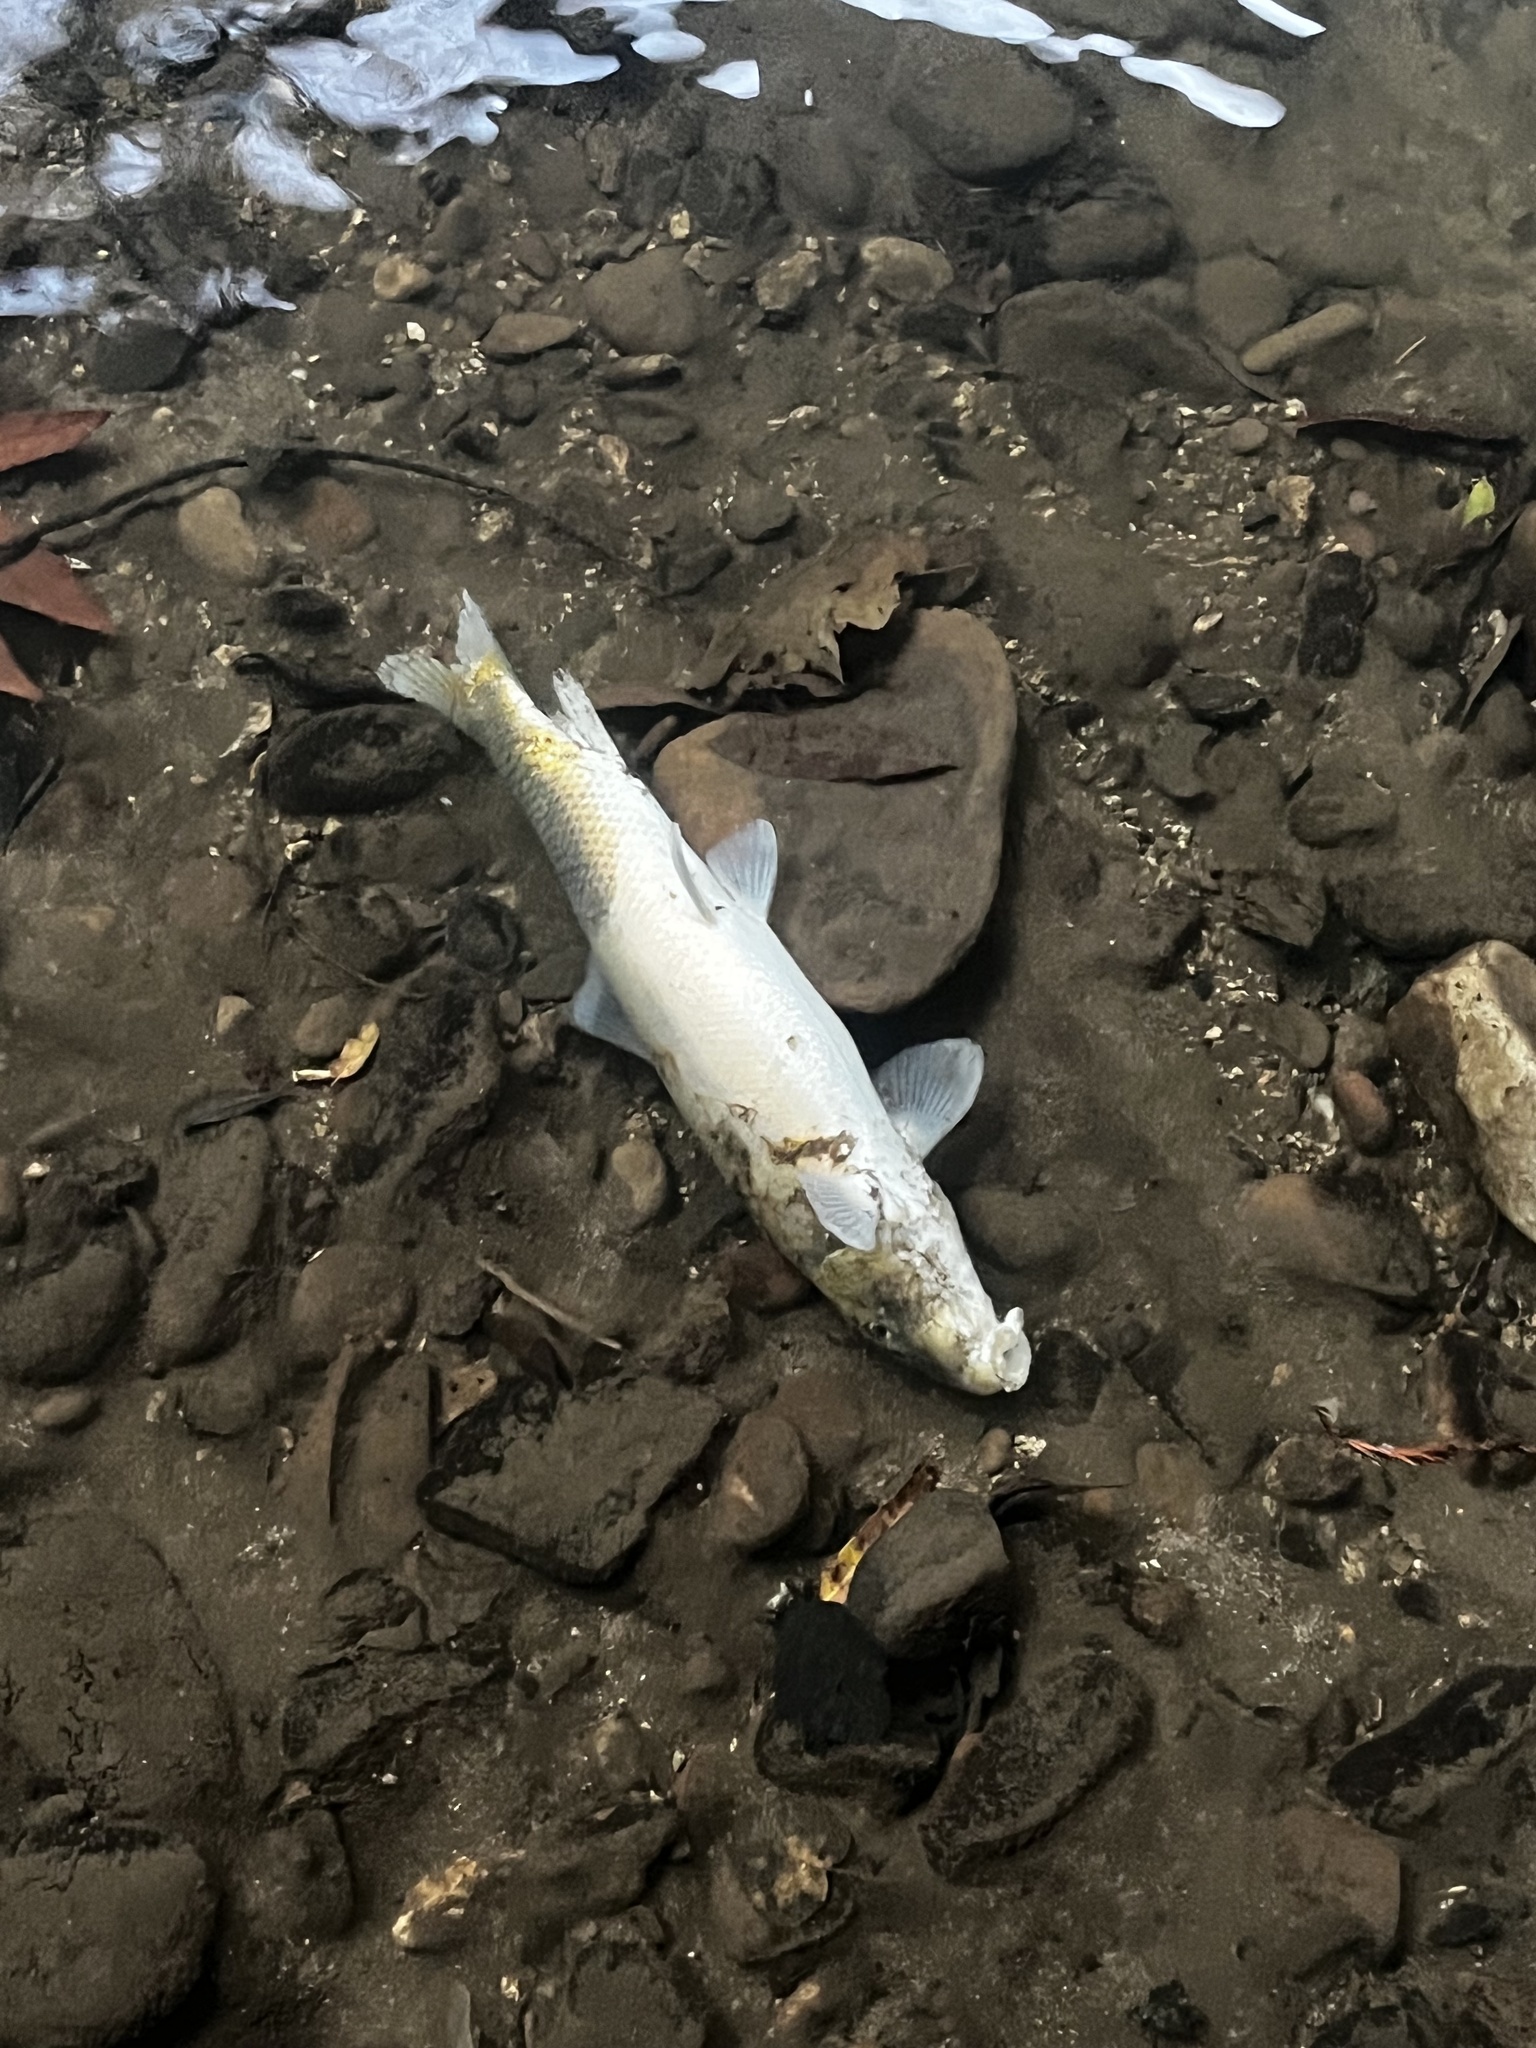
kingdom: Animalia
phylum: Chordata
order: Cypriniformes
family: Catostomidae
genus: Catostomus
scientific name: Catostomus occidentalis
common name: Goose lake sucker
